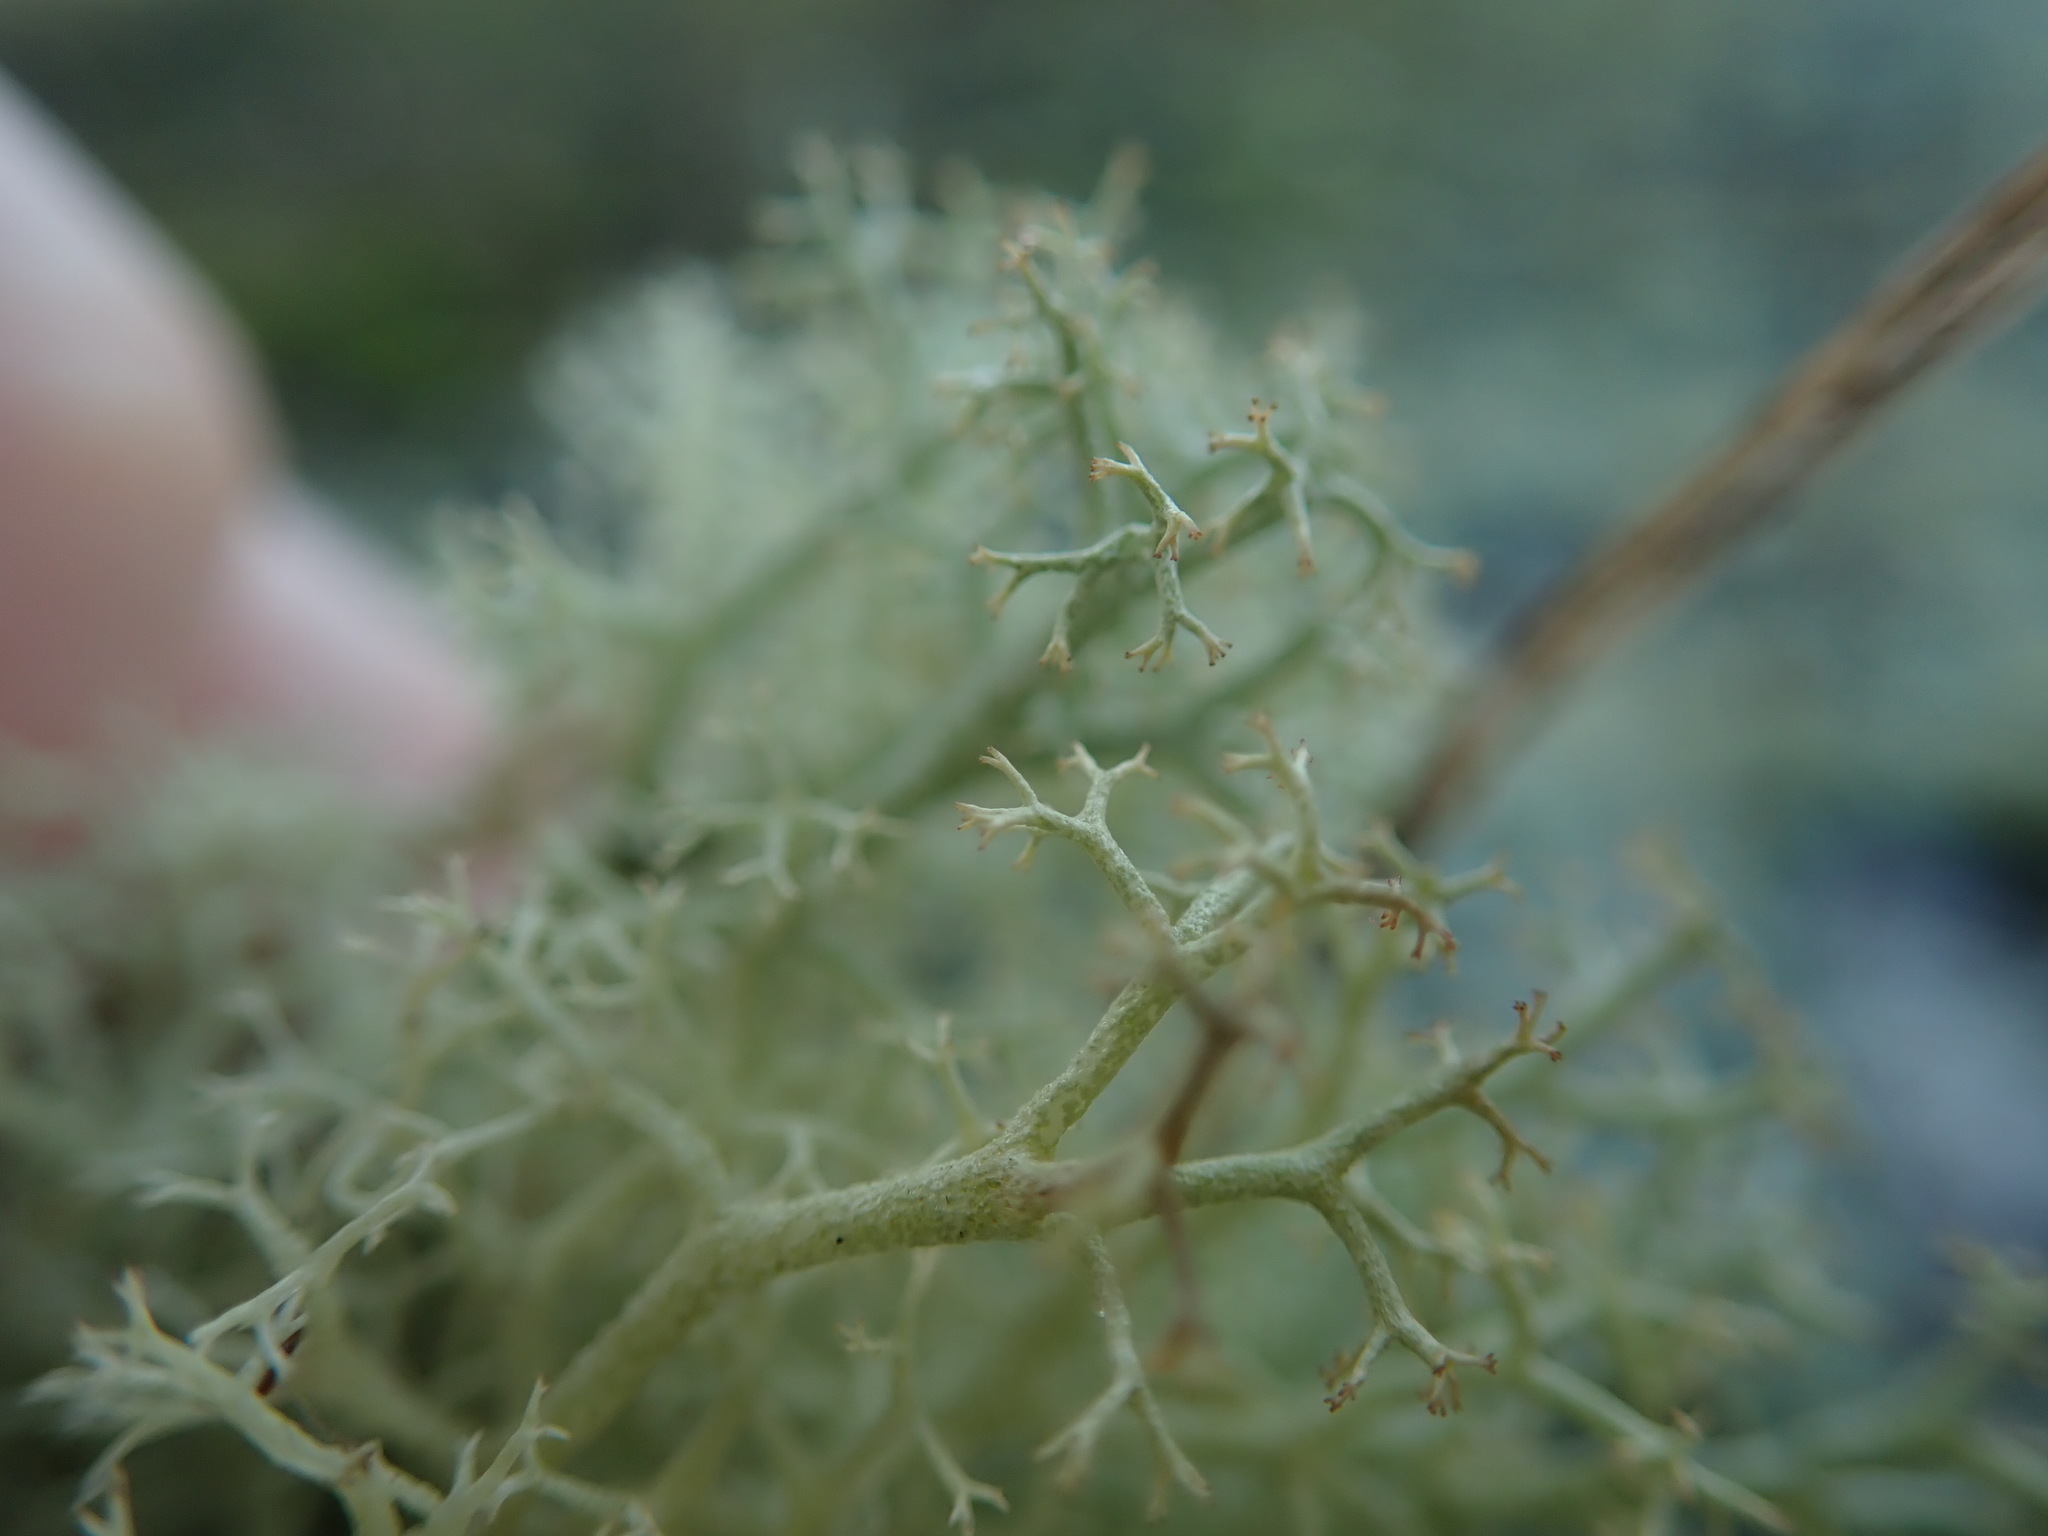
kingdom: Fungi
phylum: Ascomycota
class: Lecanoromycetes
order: Lecanorales
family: Cladoniaceae
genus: Cladonia
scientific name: Cladonia portentosa
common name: Reindeer lichen
